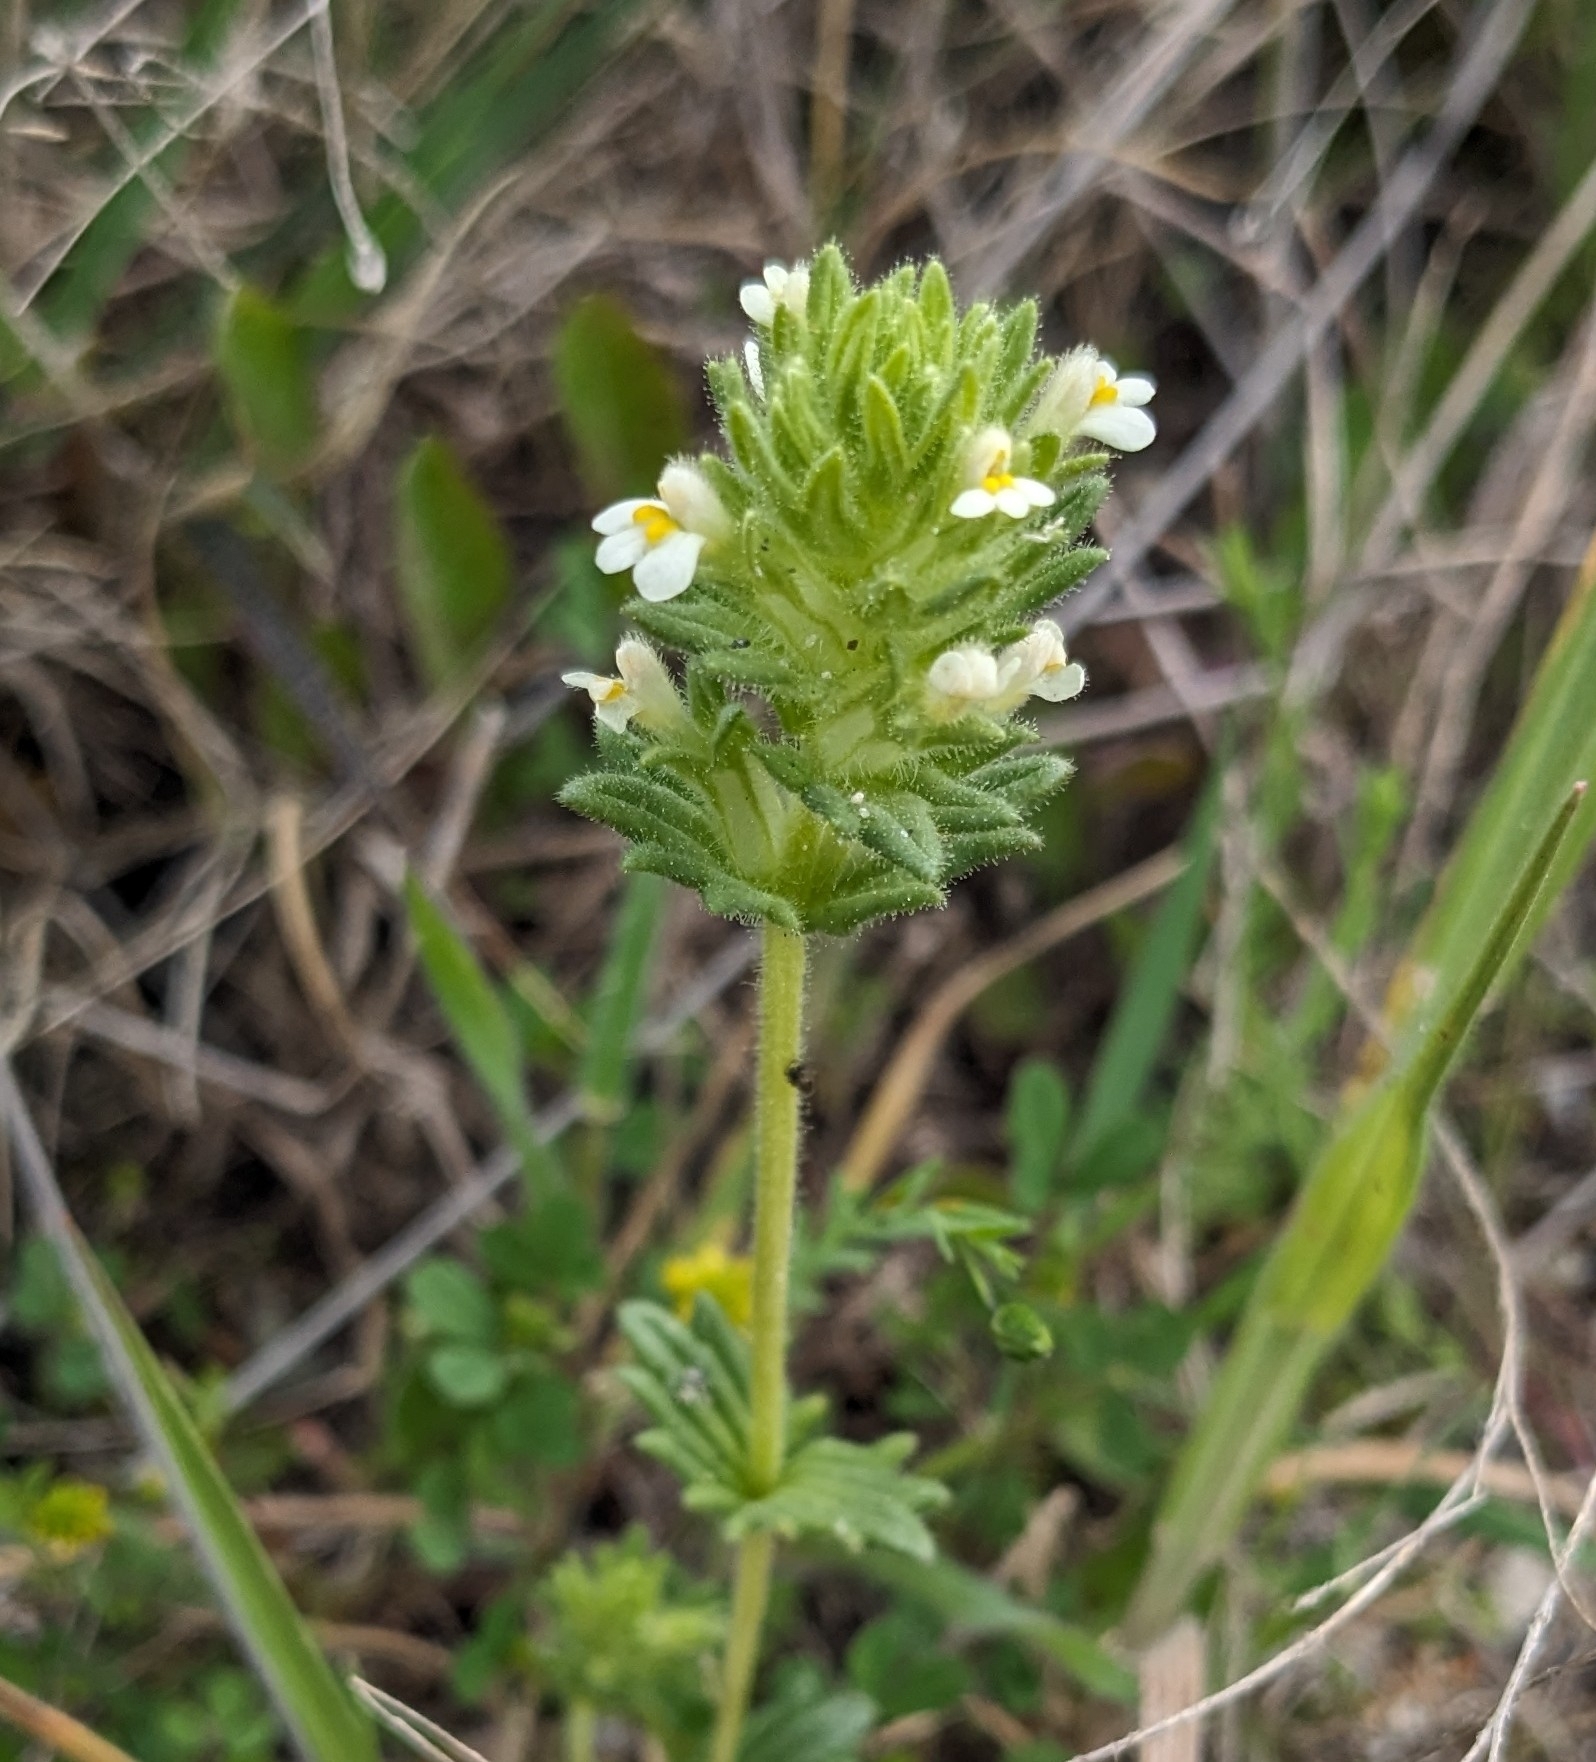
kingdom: Plantae
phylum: Tracheophyta
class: Magnoliopsida
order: Lamiales
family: Orobanchaceae
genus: Parentucellia
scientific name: Parentucellia flaviflora
